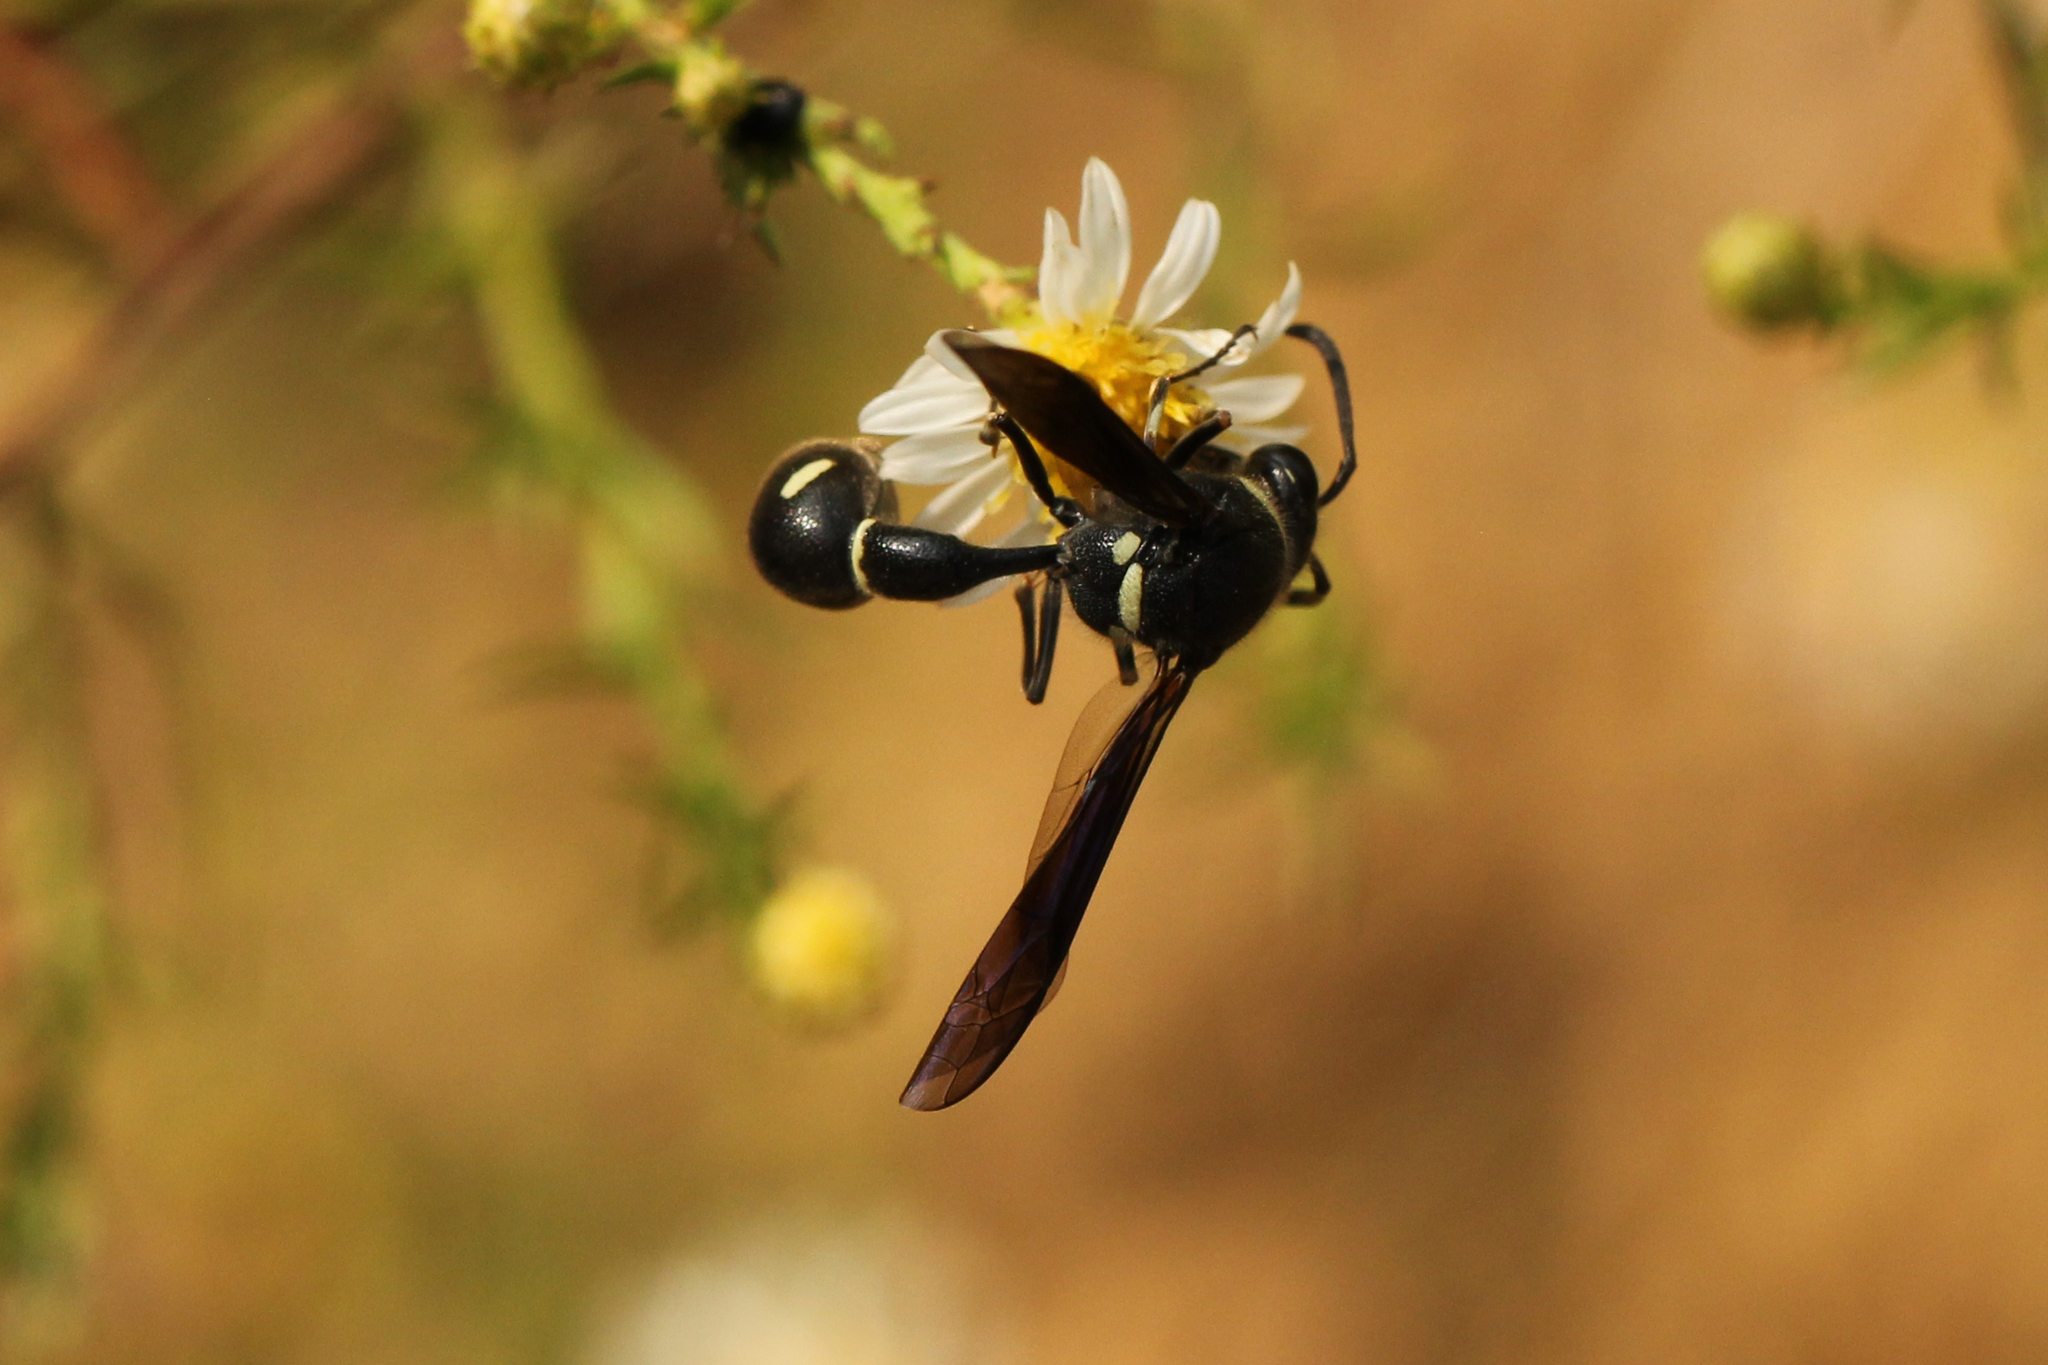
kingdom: Animalia
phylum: Arthropoda
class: Insecta
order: Hymenoptera
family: Vespidae
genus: Eumenes
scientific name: Eumenes fraternus
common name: Fraternal potter wasp
